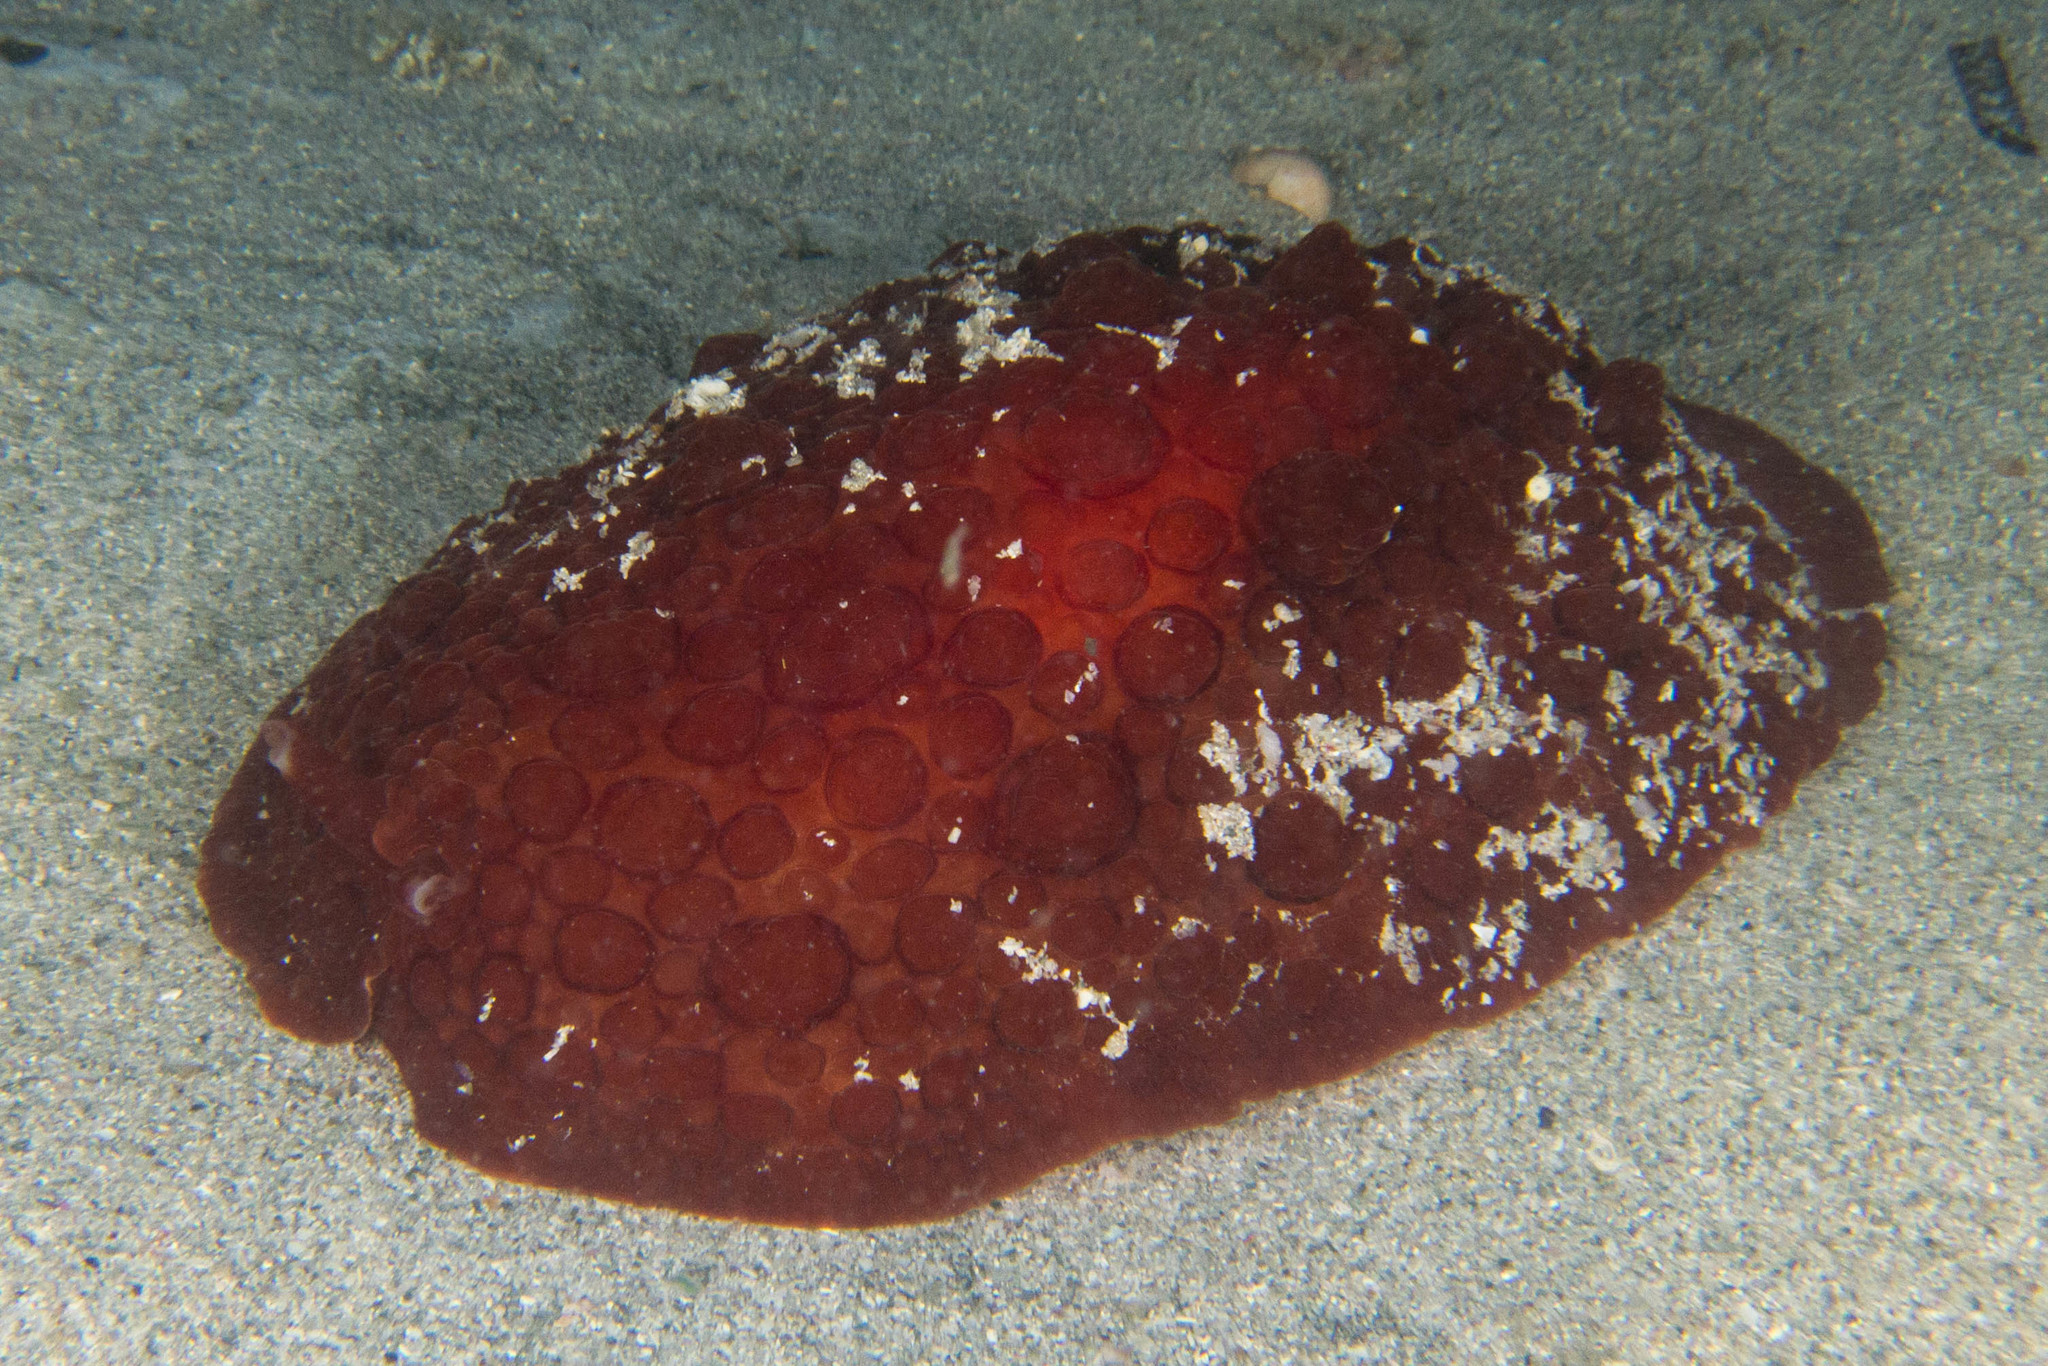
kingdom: Animalia
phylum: Mollusca
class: Gastropoda
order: Pleurobranchida
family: Pleurobranchidae
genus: Pleurobranchus
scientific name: Pleurobranchus hilli
